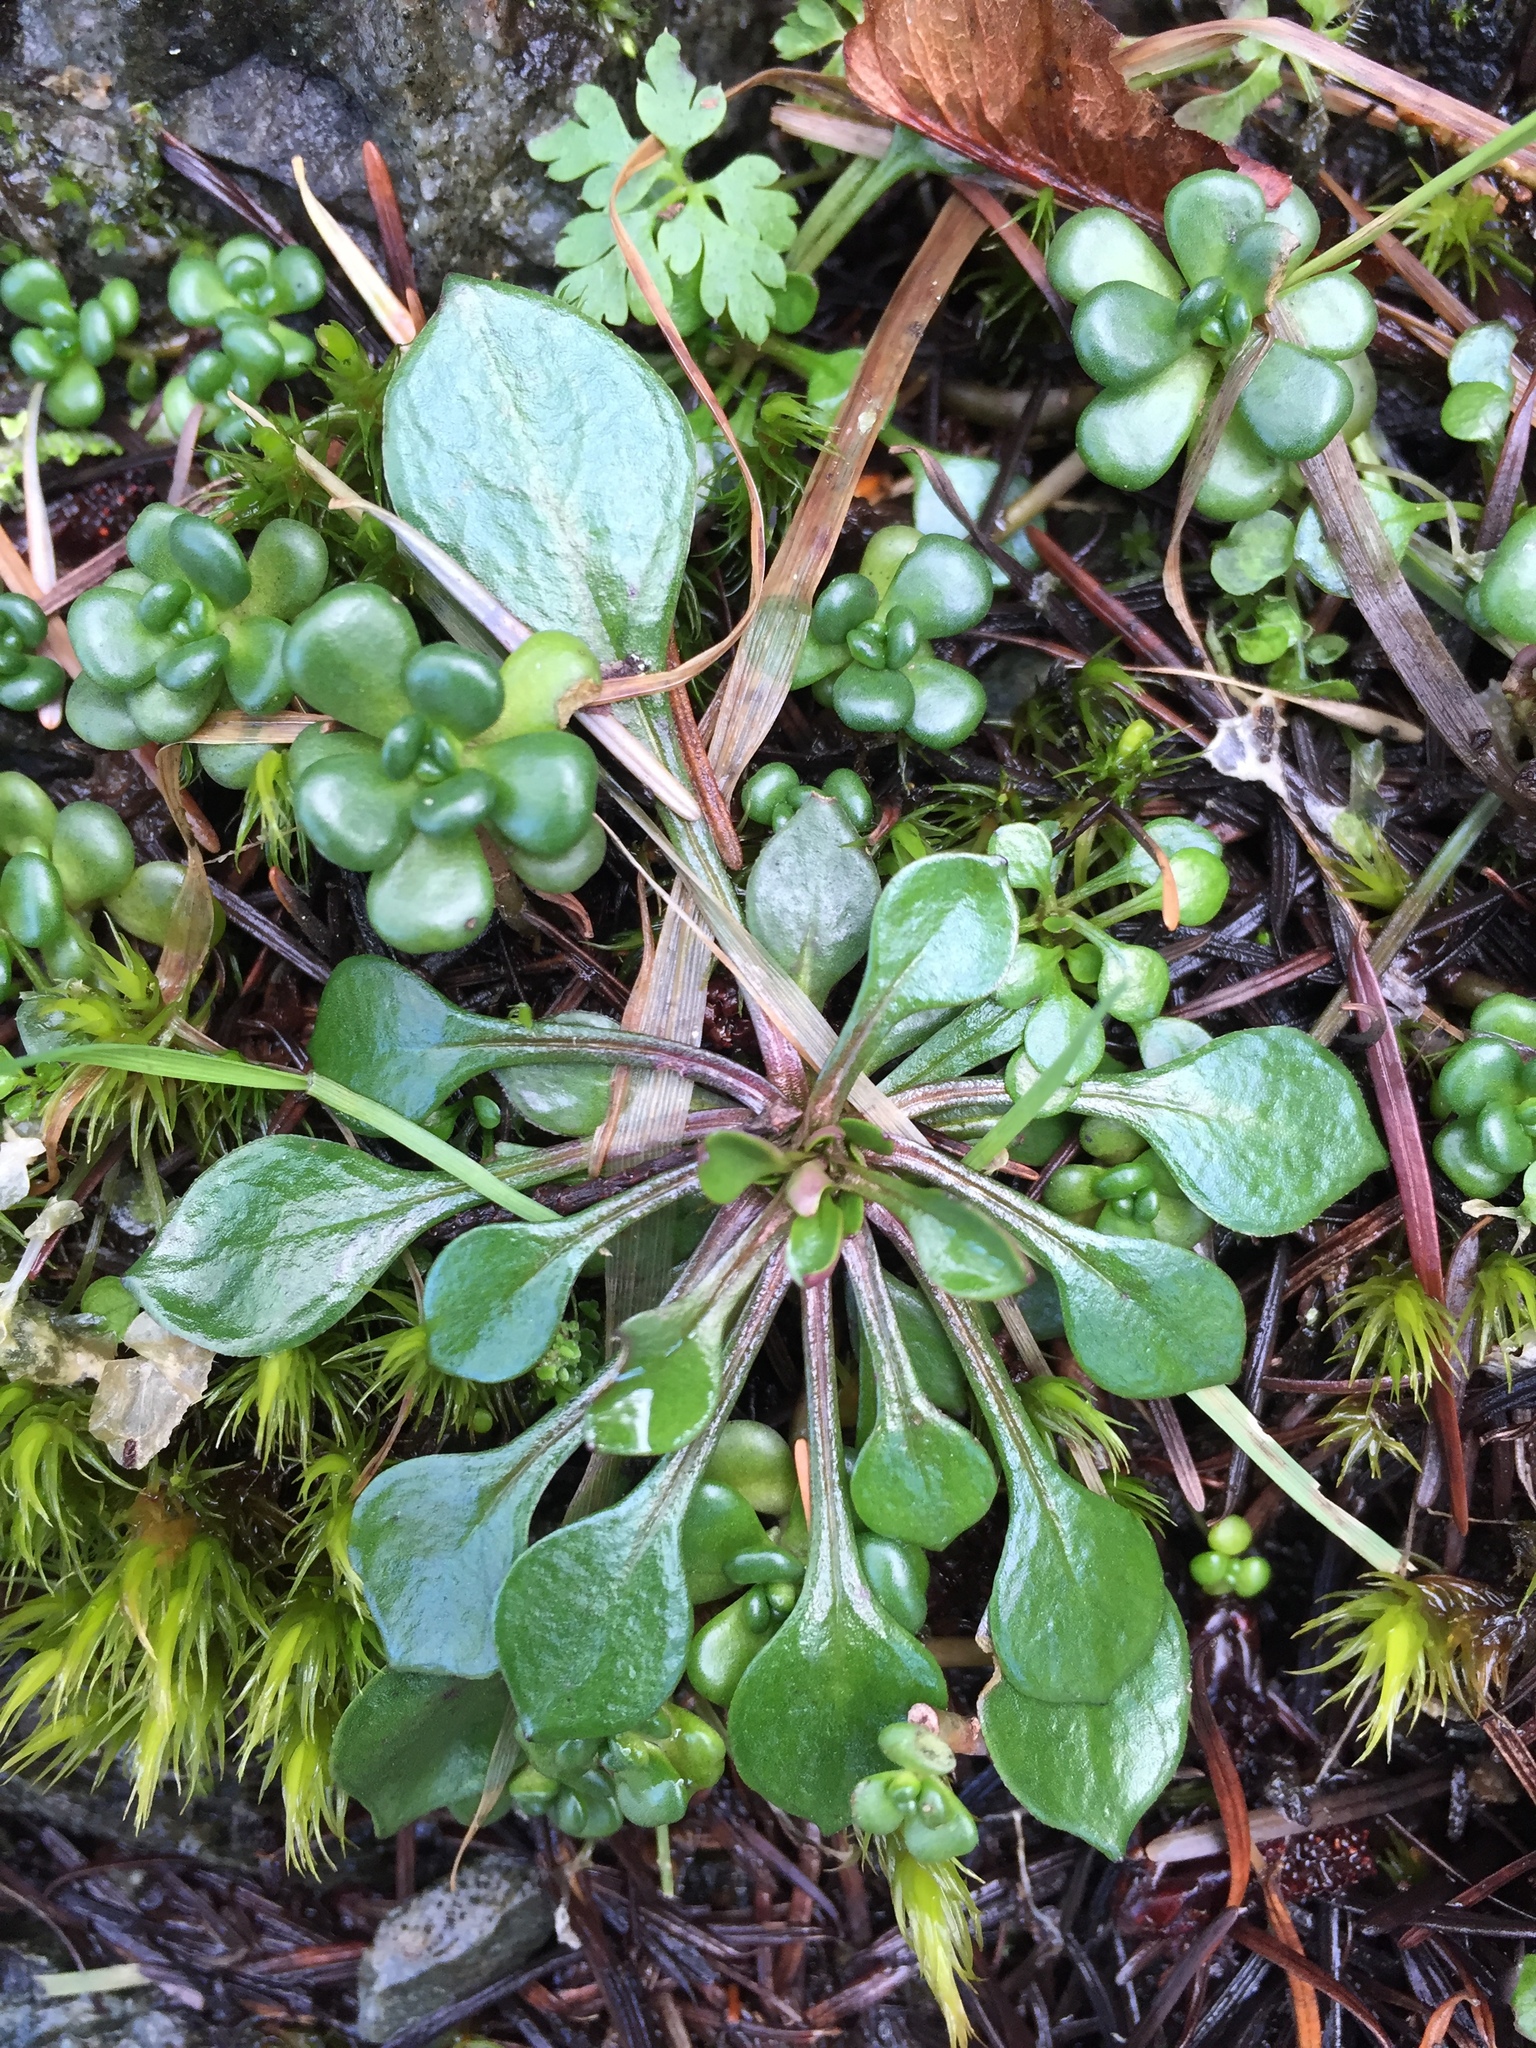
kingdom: Plantae
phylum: Tracheophyta
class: Magnoliopsida
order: Caryophyllales
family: Montiaceae
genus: Claytonia
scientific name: Claytonia sibirica
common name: Pink purslane
